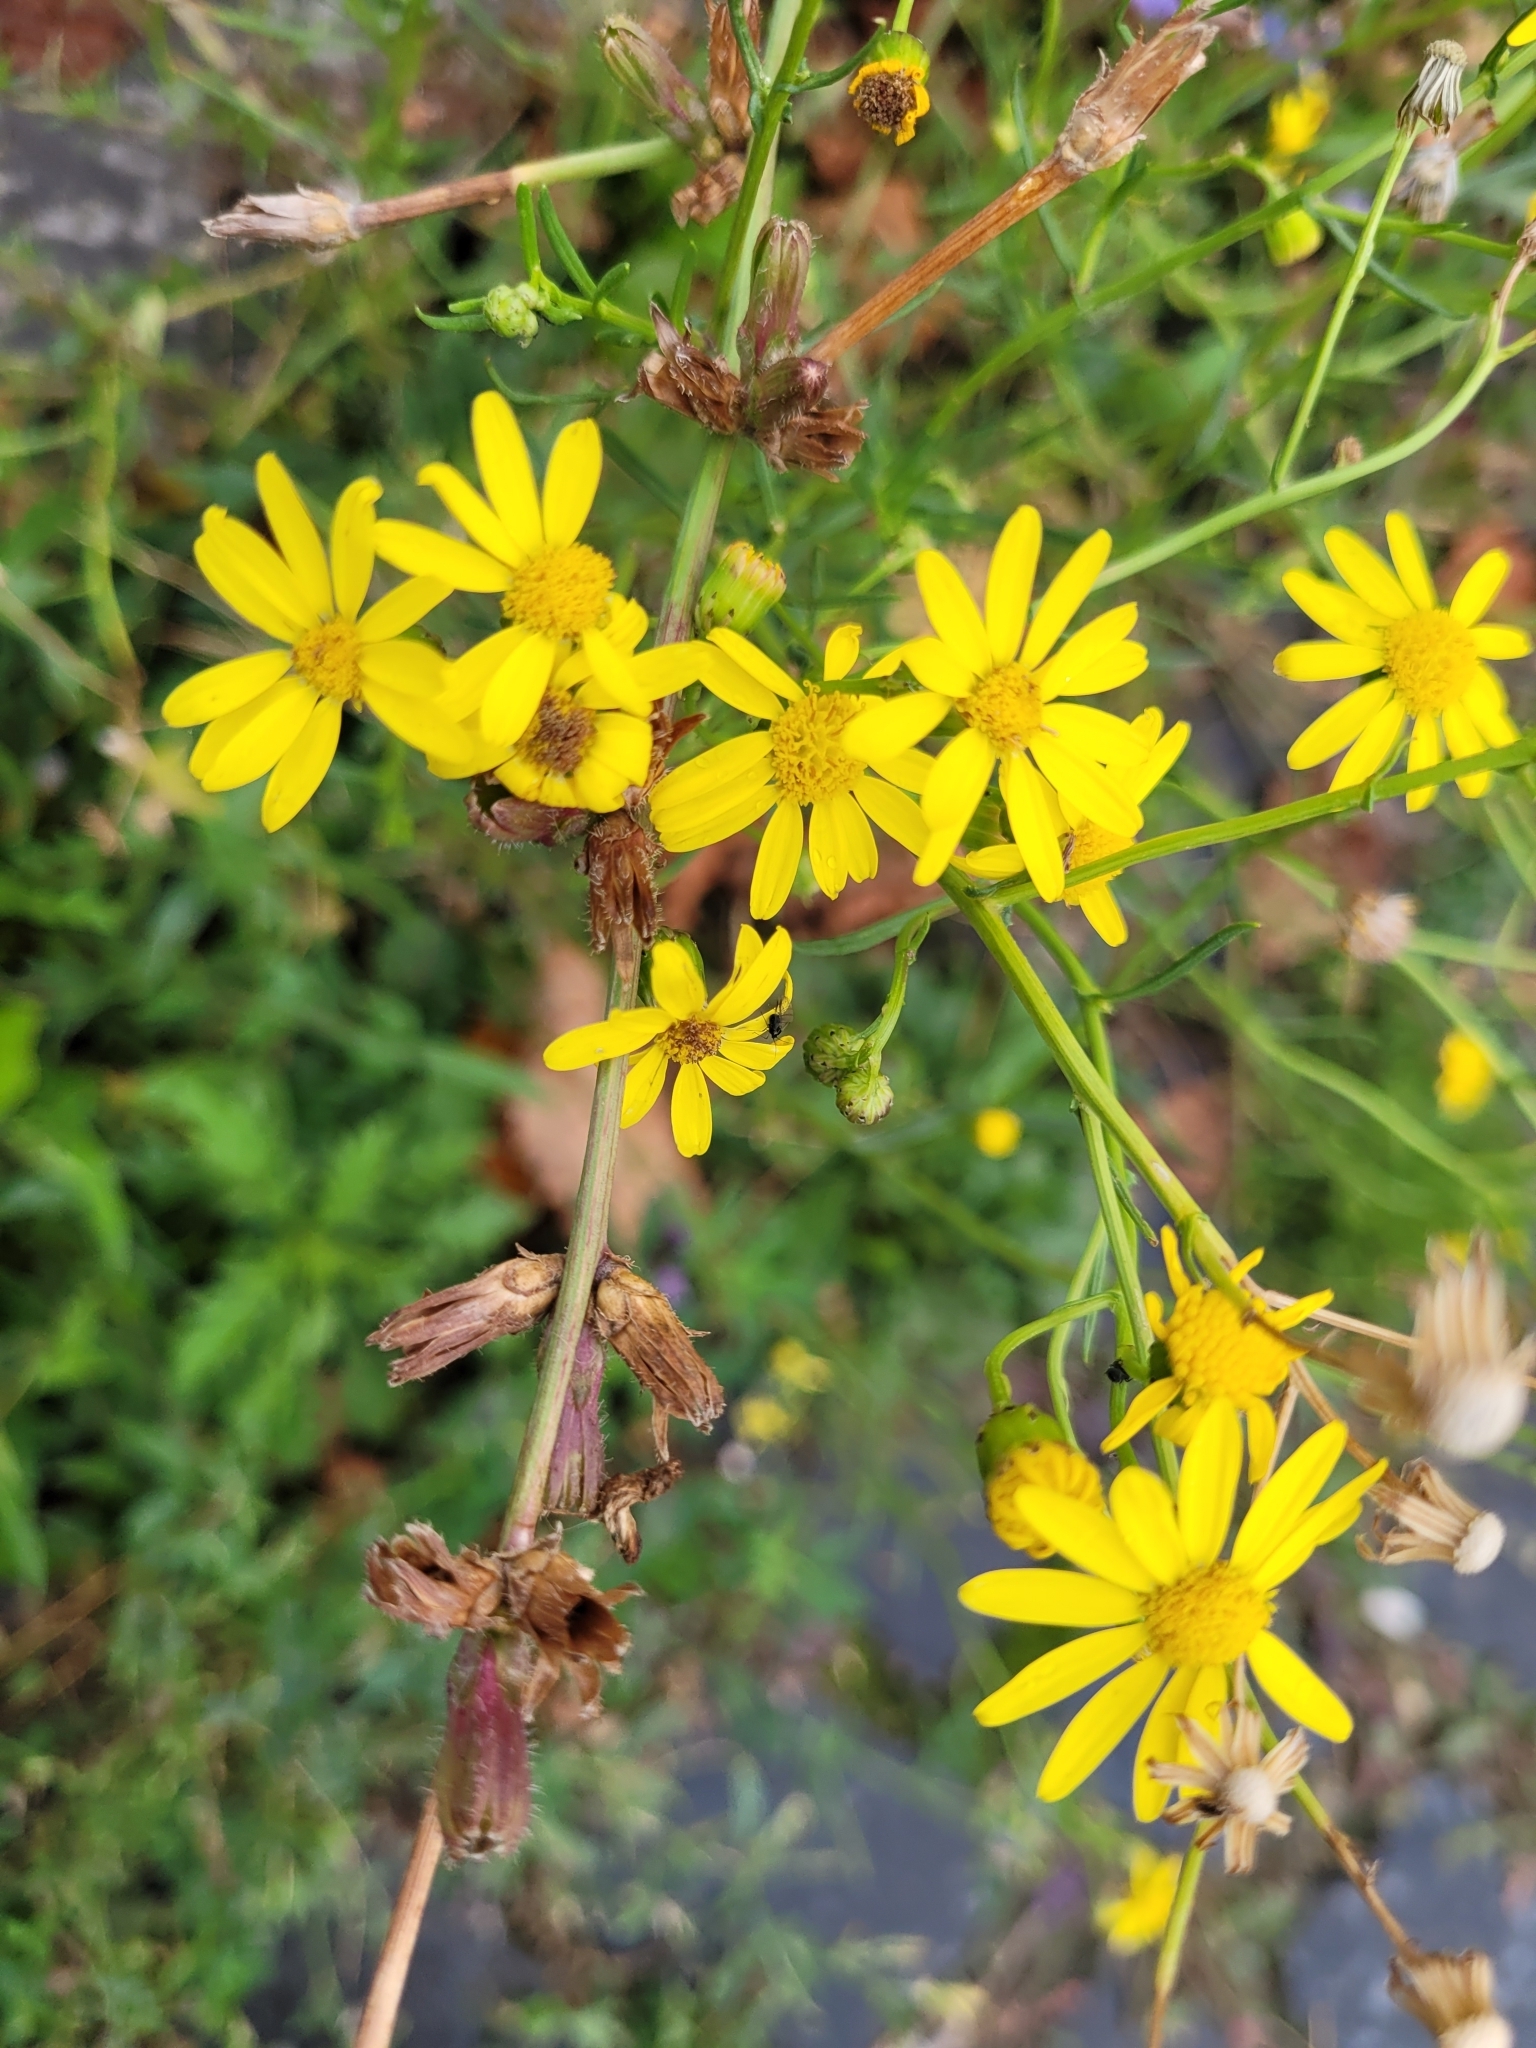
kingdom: Plantae
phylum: Tracheophyta
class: Magnoliopsida
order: Asterales
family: Asteraceae
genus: Senecio
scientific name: Senecio inaequidens
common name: Narrow-leaved ragwort
